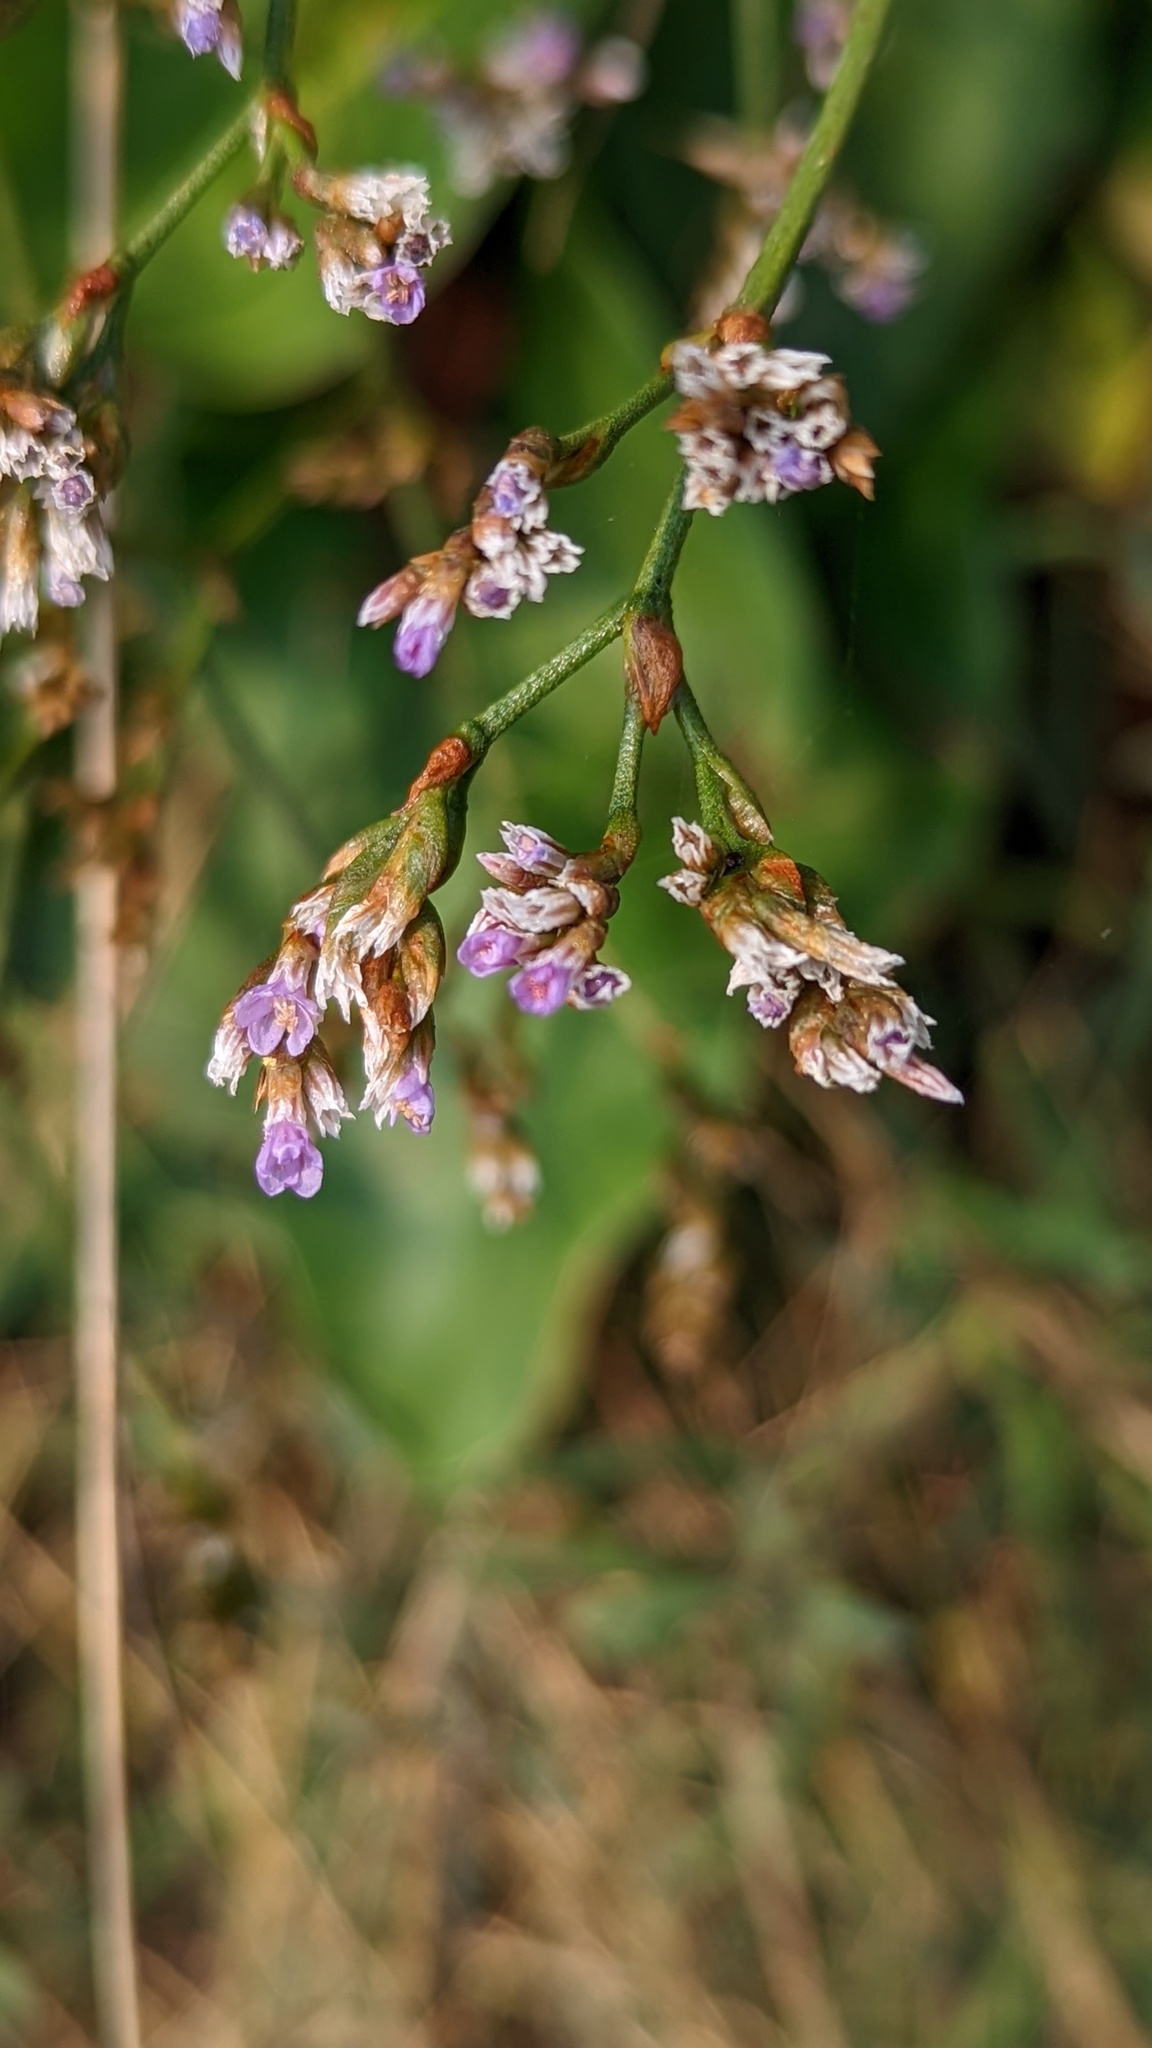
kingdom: Plantae
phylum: Tracheophyta
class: Magnoliopsida
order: Caryophyllales
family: Plumbaginaceae
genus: Limonium
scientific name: Limonium californicum
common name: Marsh-rosemary
